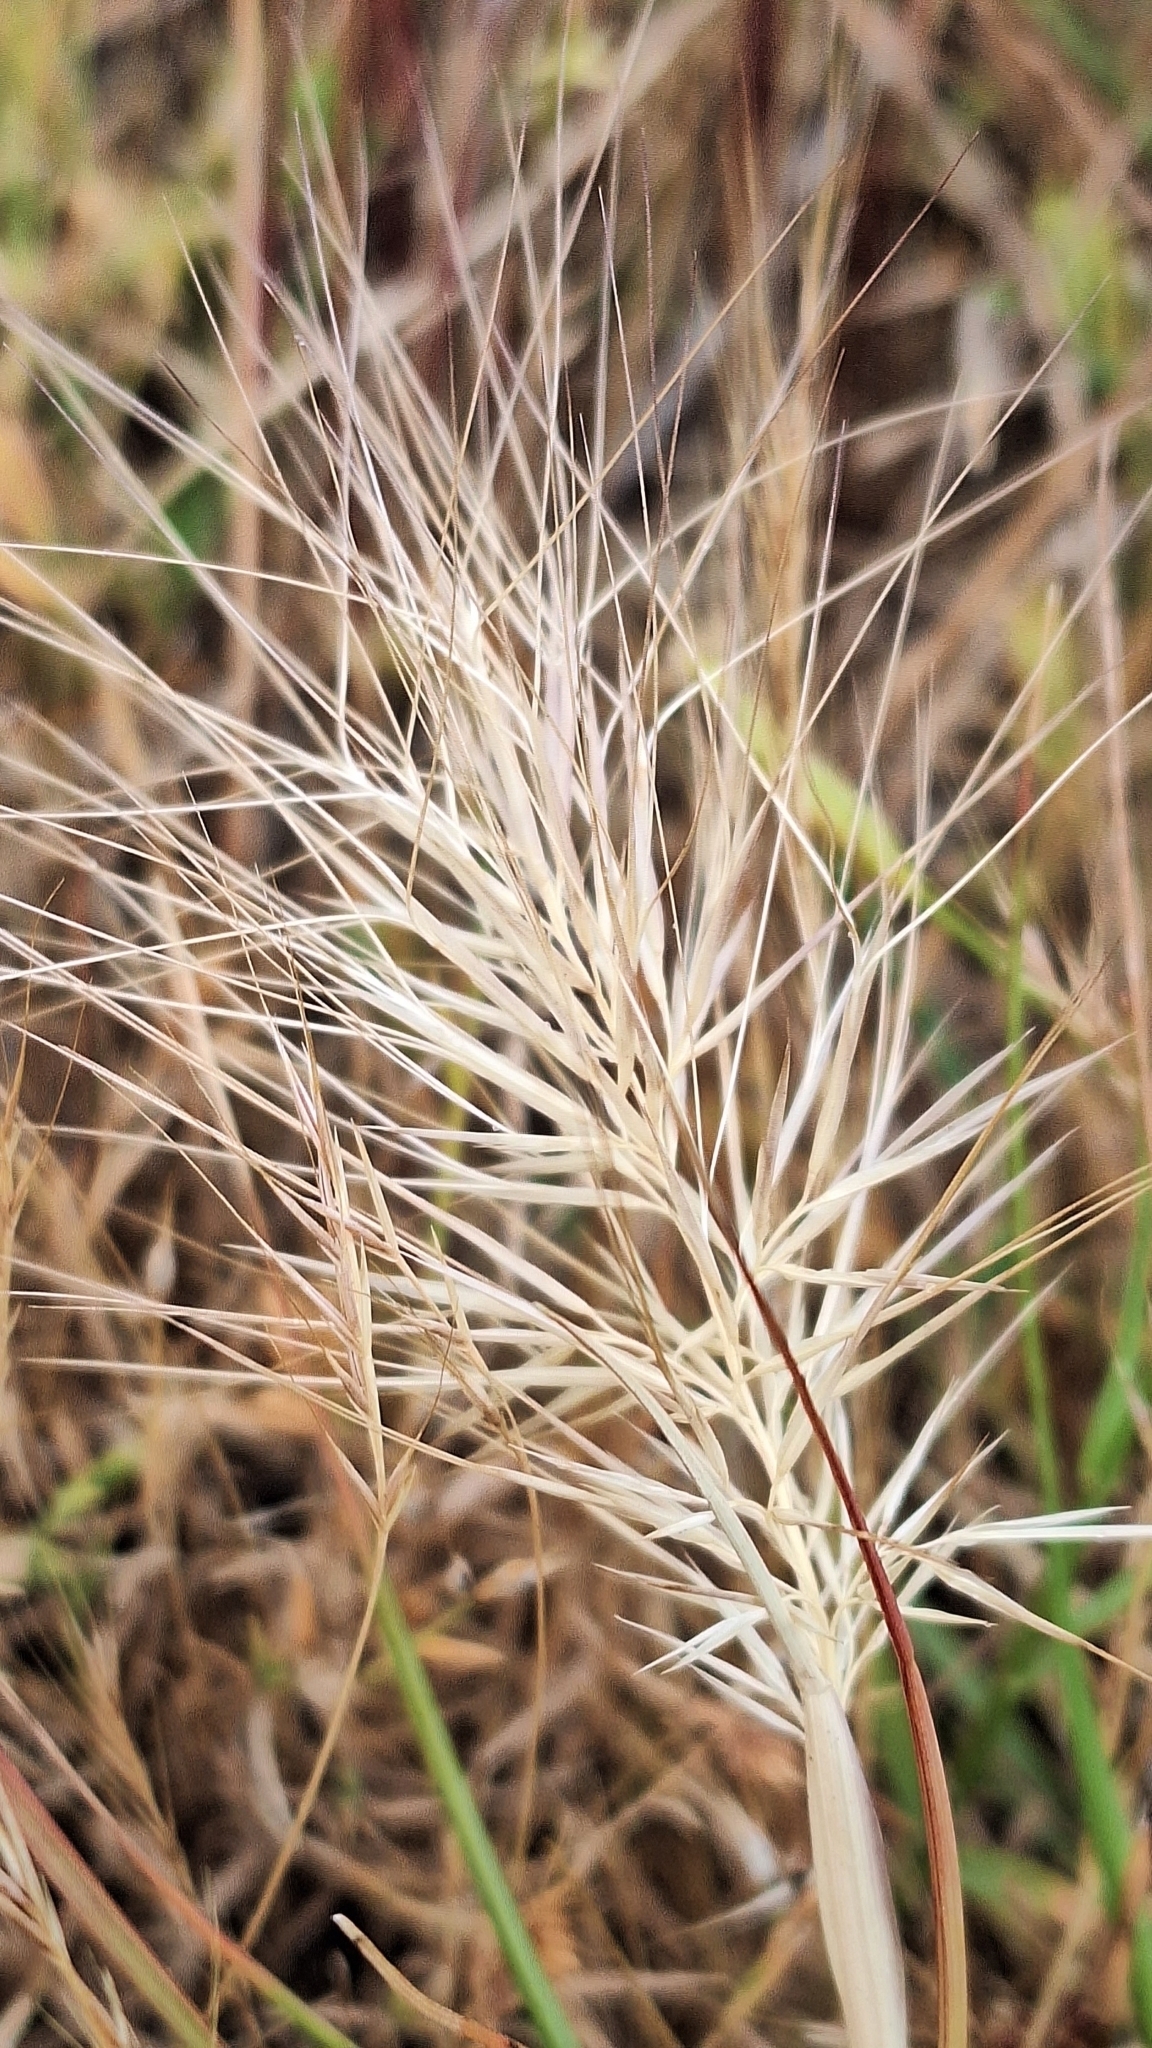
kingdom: Plantae
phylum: Tracheophyta
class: Liliopsida
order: Poales
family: Poaceae
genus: Aristida
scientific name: Aristida behriana
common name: Long-awn wire grass
